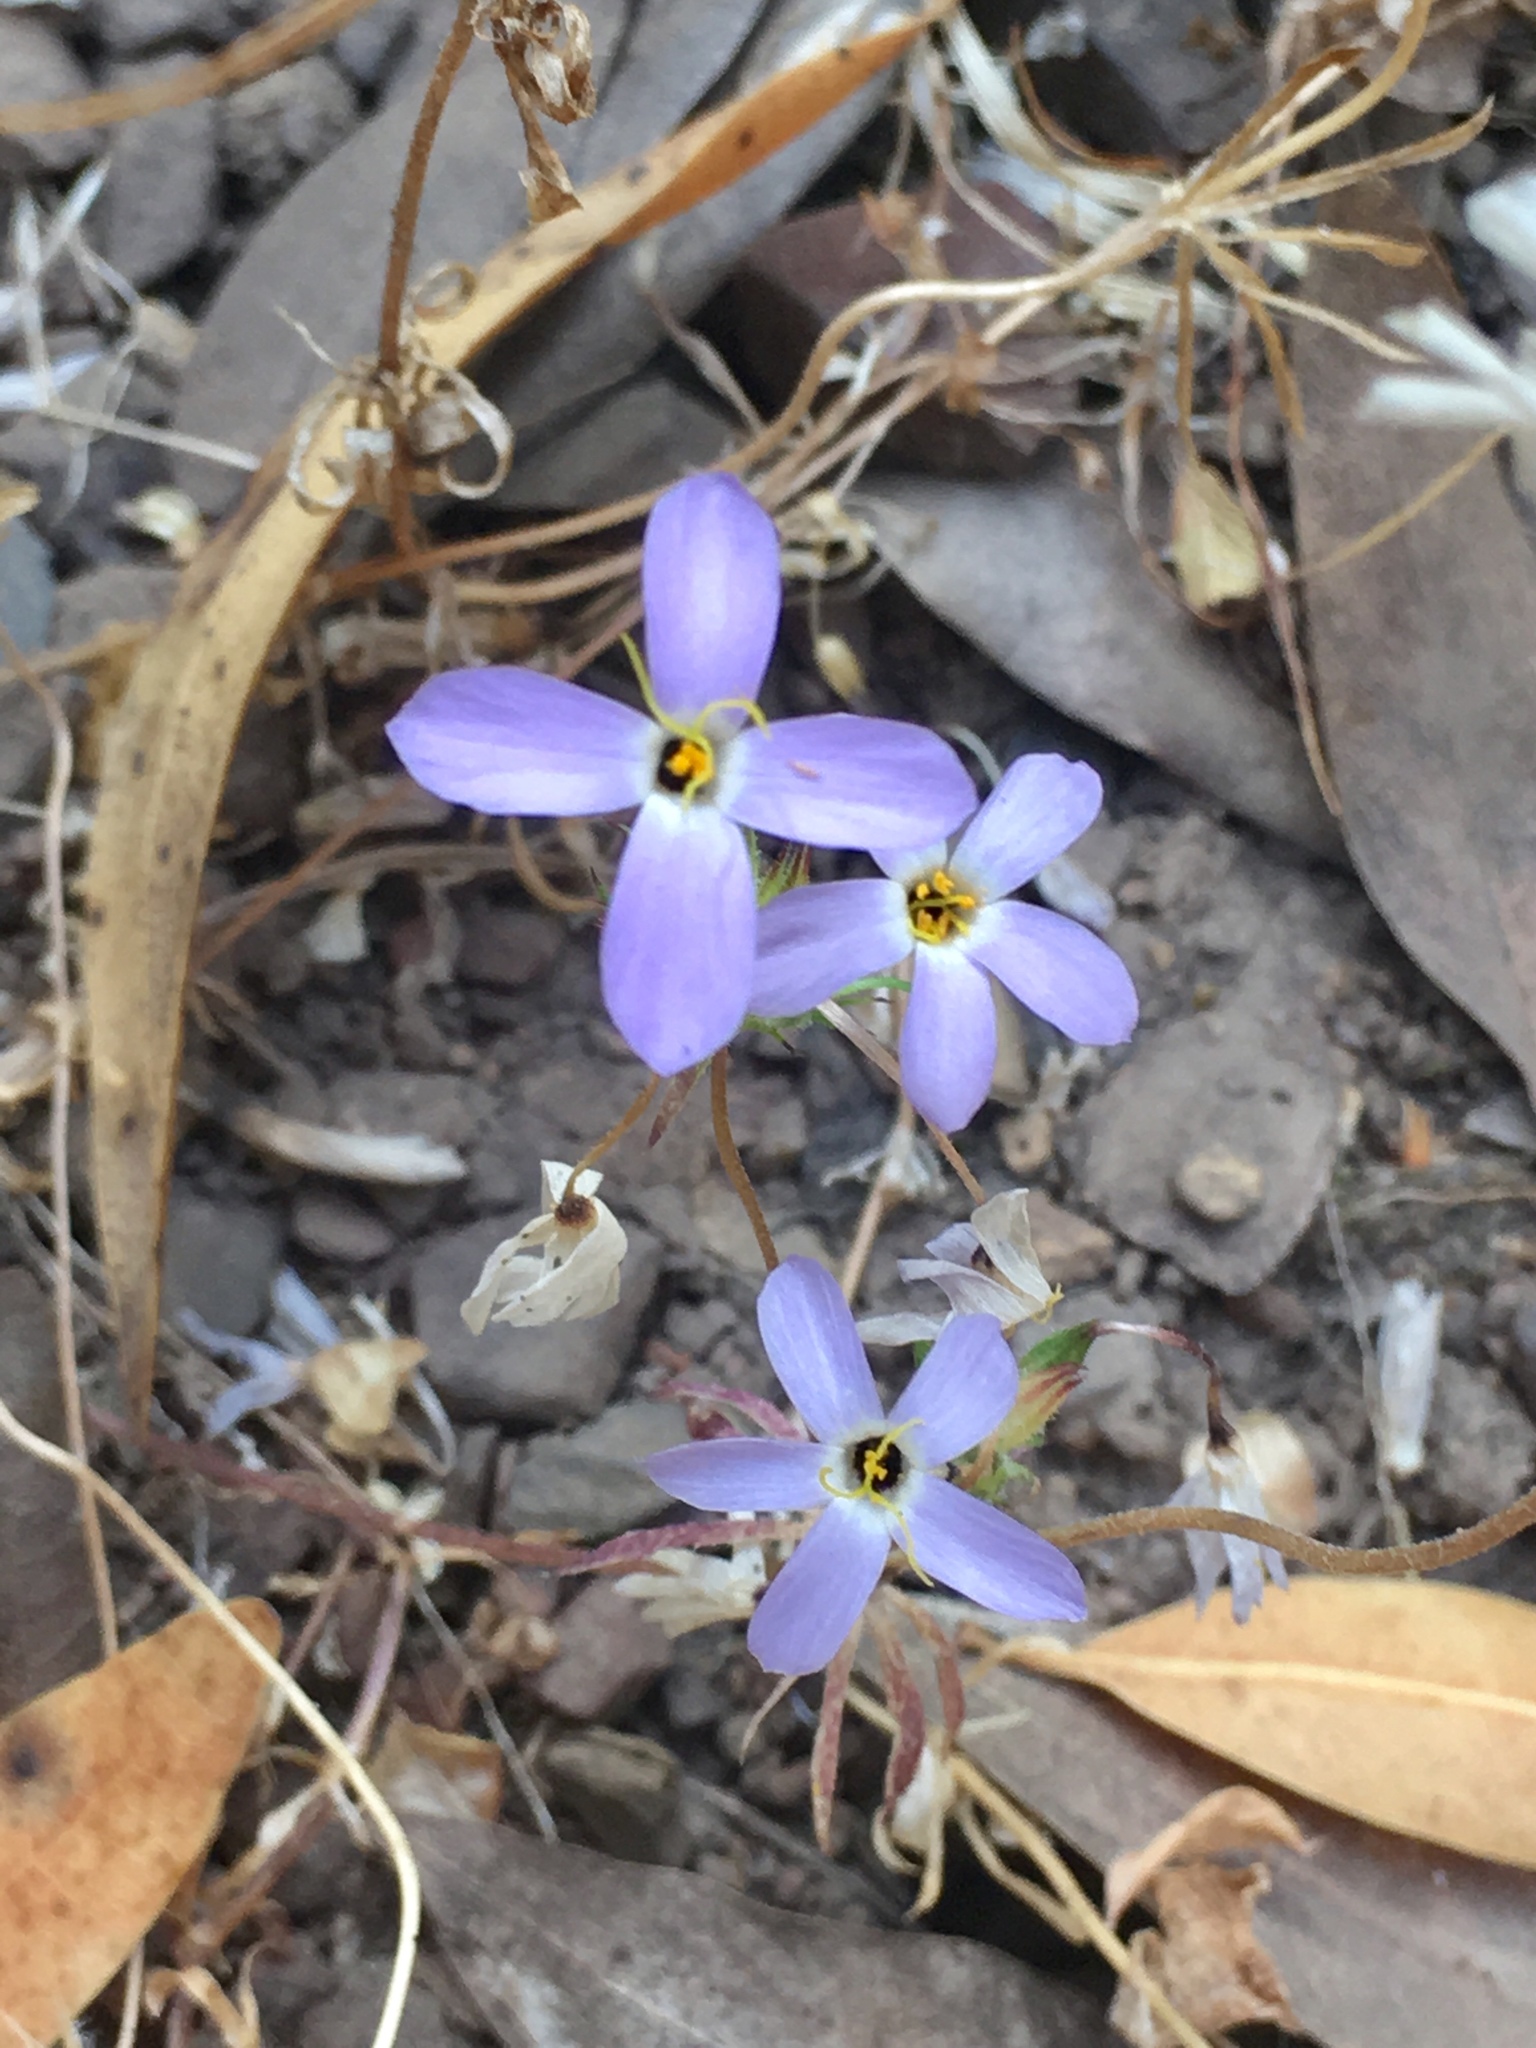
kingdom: Plantae
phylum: Tracheophyta
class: Magnoliopsida
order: Ericales
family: Polemoniaceae
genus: Leptosiphon
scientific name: Leptosiphon androsaceus
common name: False babystars
